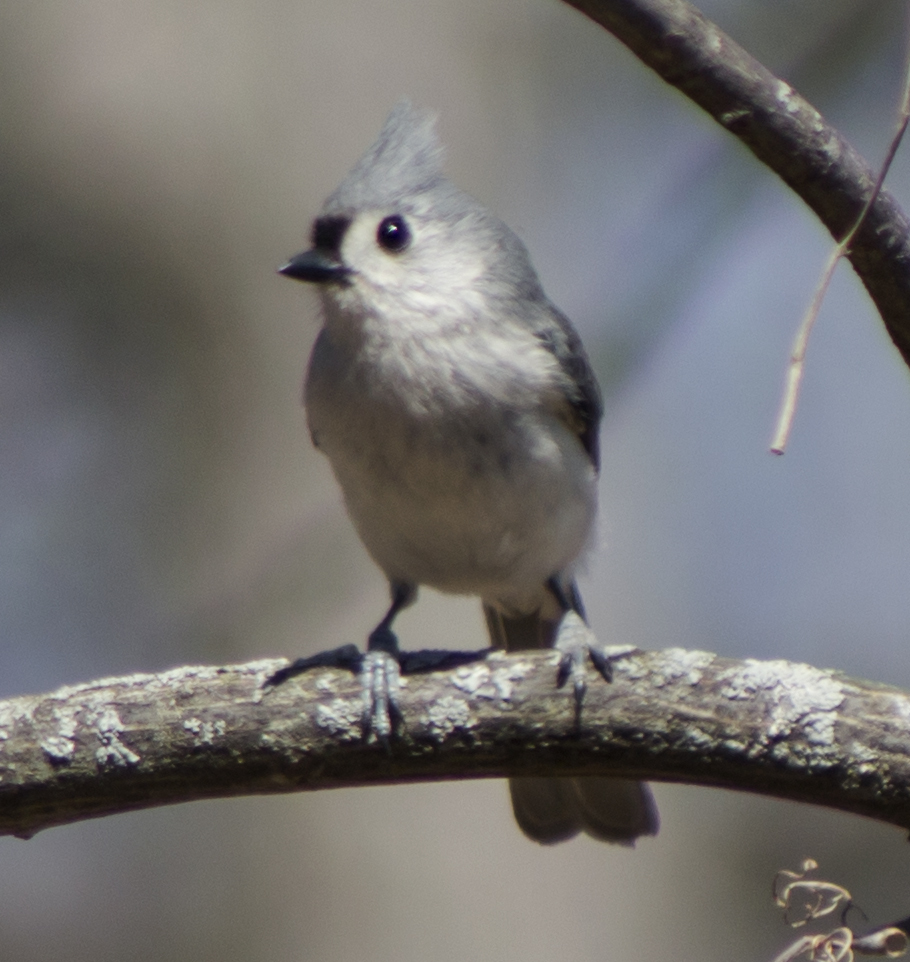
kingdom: Animalia
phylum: Chordata
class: Aves
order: Passeriformes
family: Paridae
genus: Baeolophus
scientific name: Baeolophus bicolor
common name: Tufted titmouse
